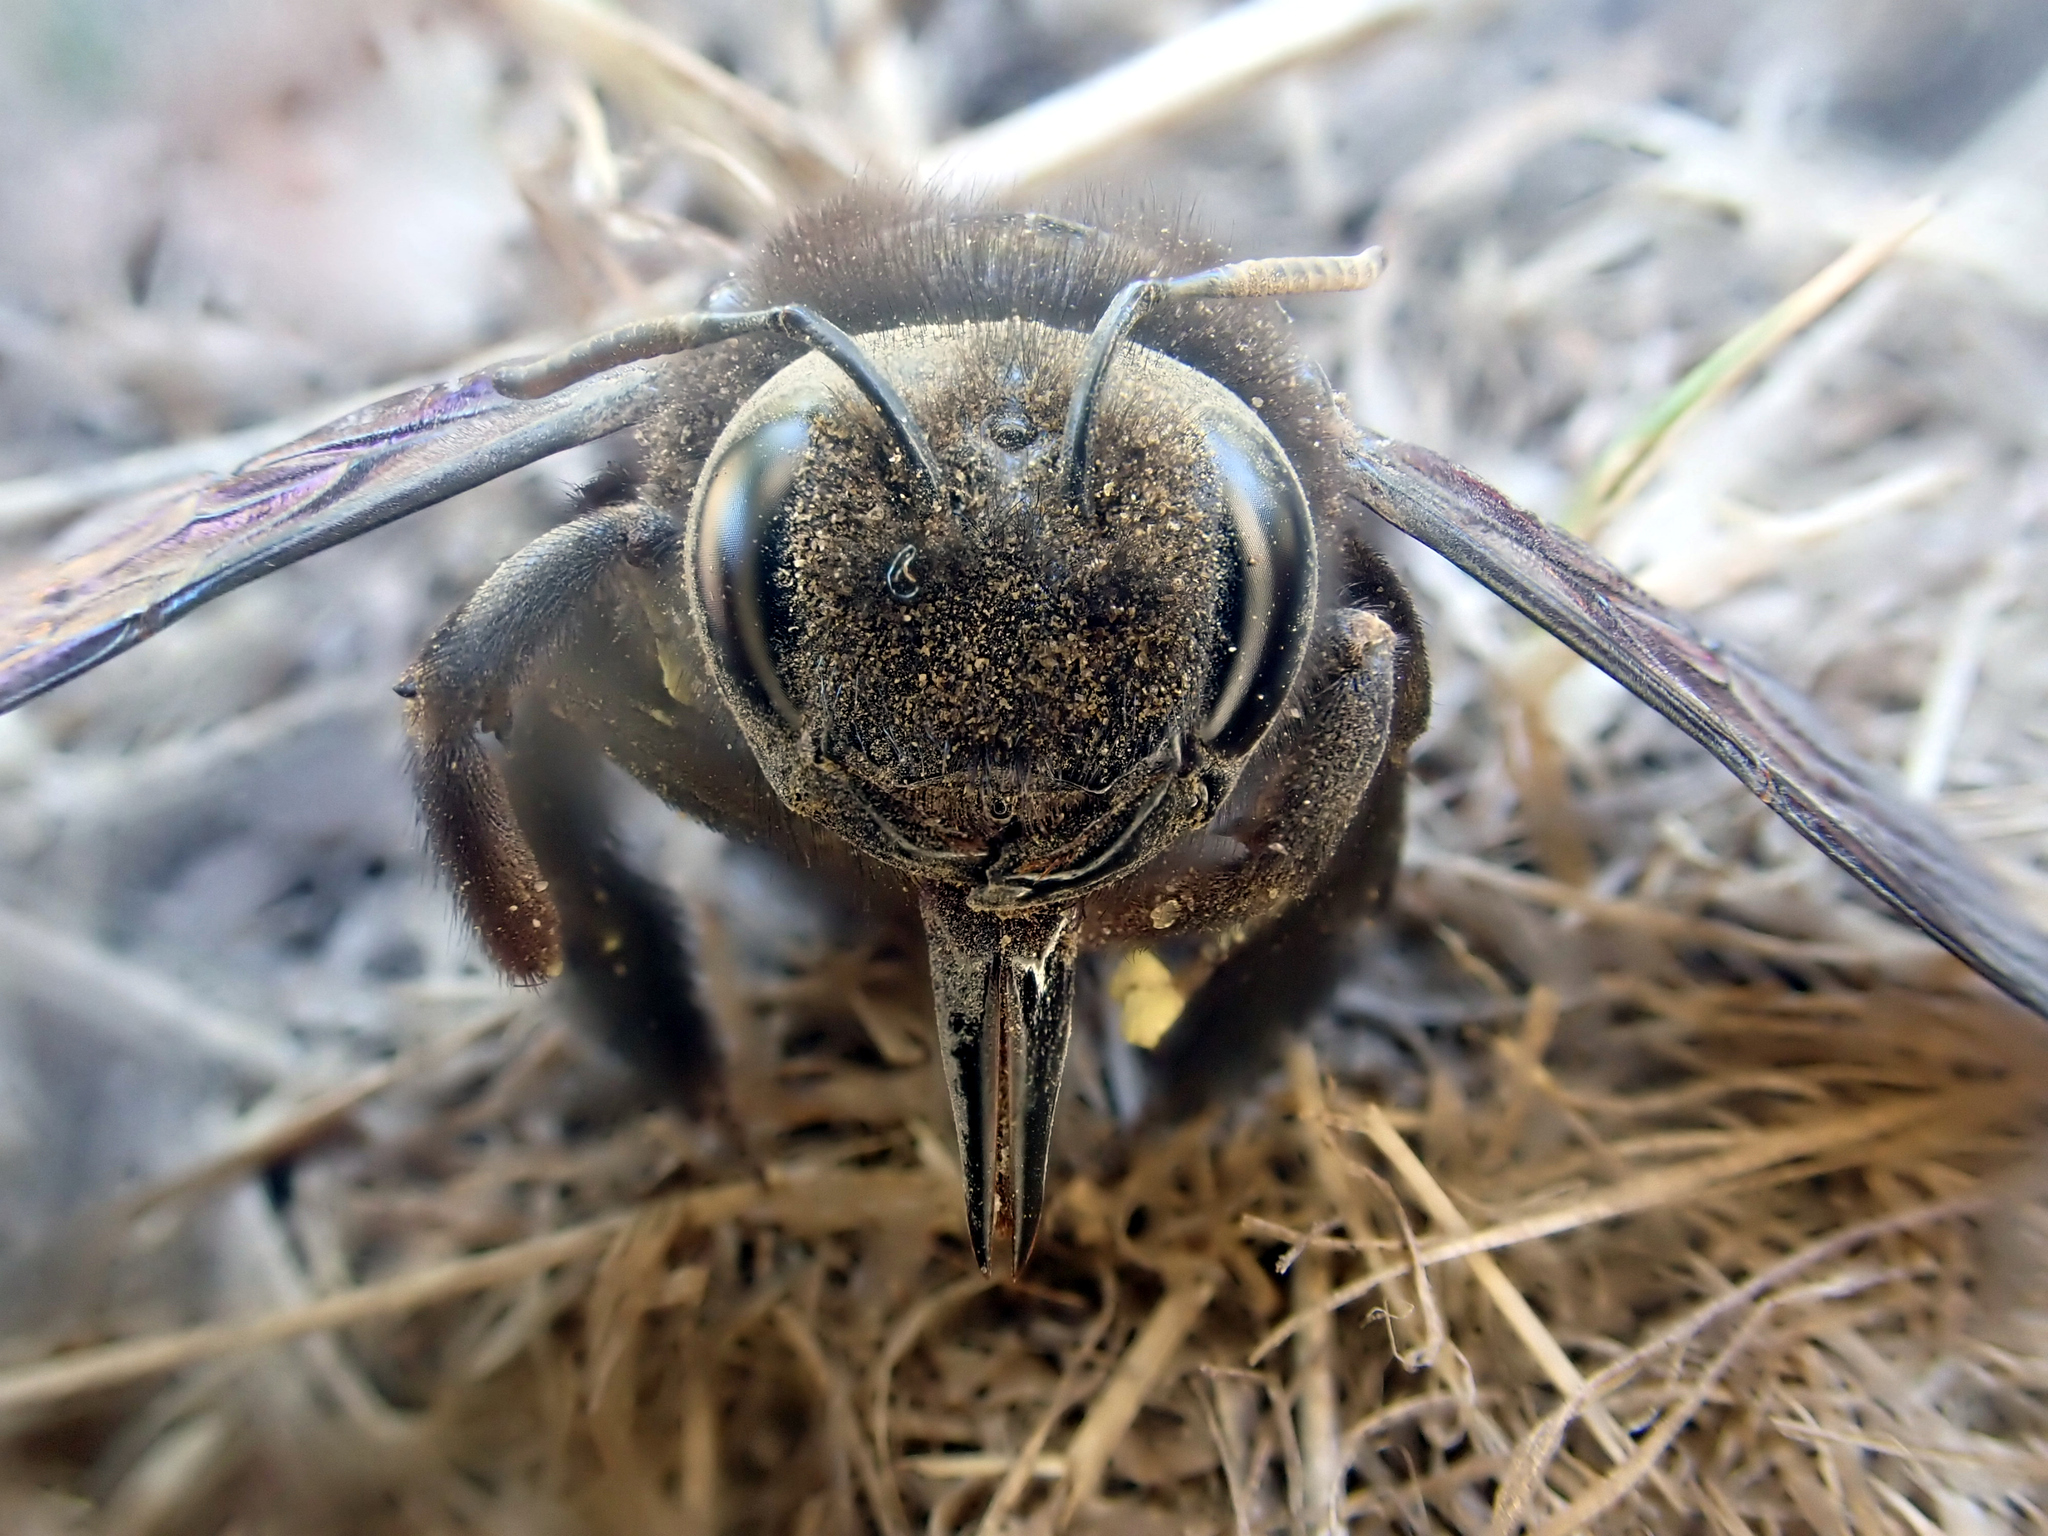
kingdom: Animalia
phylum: Arthropoda
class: Insecta
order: Hymenoptera
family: Apidae
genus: Xylocopa
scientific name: Xylocopa violacea
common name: Violet carpenter bee
